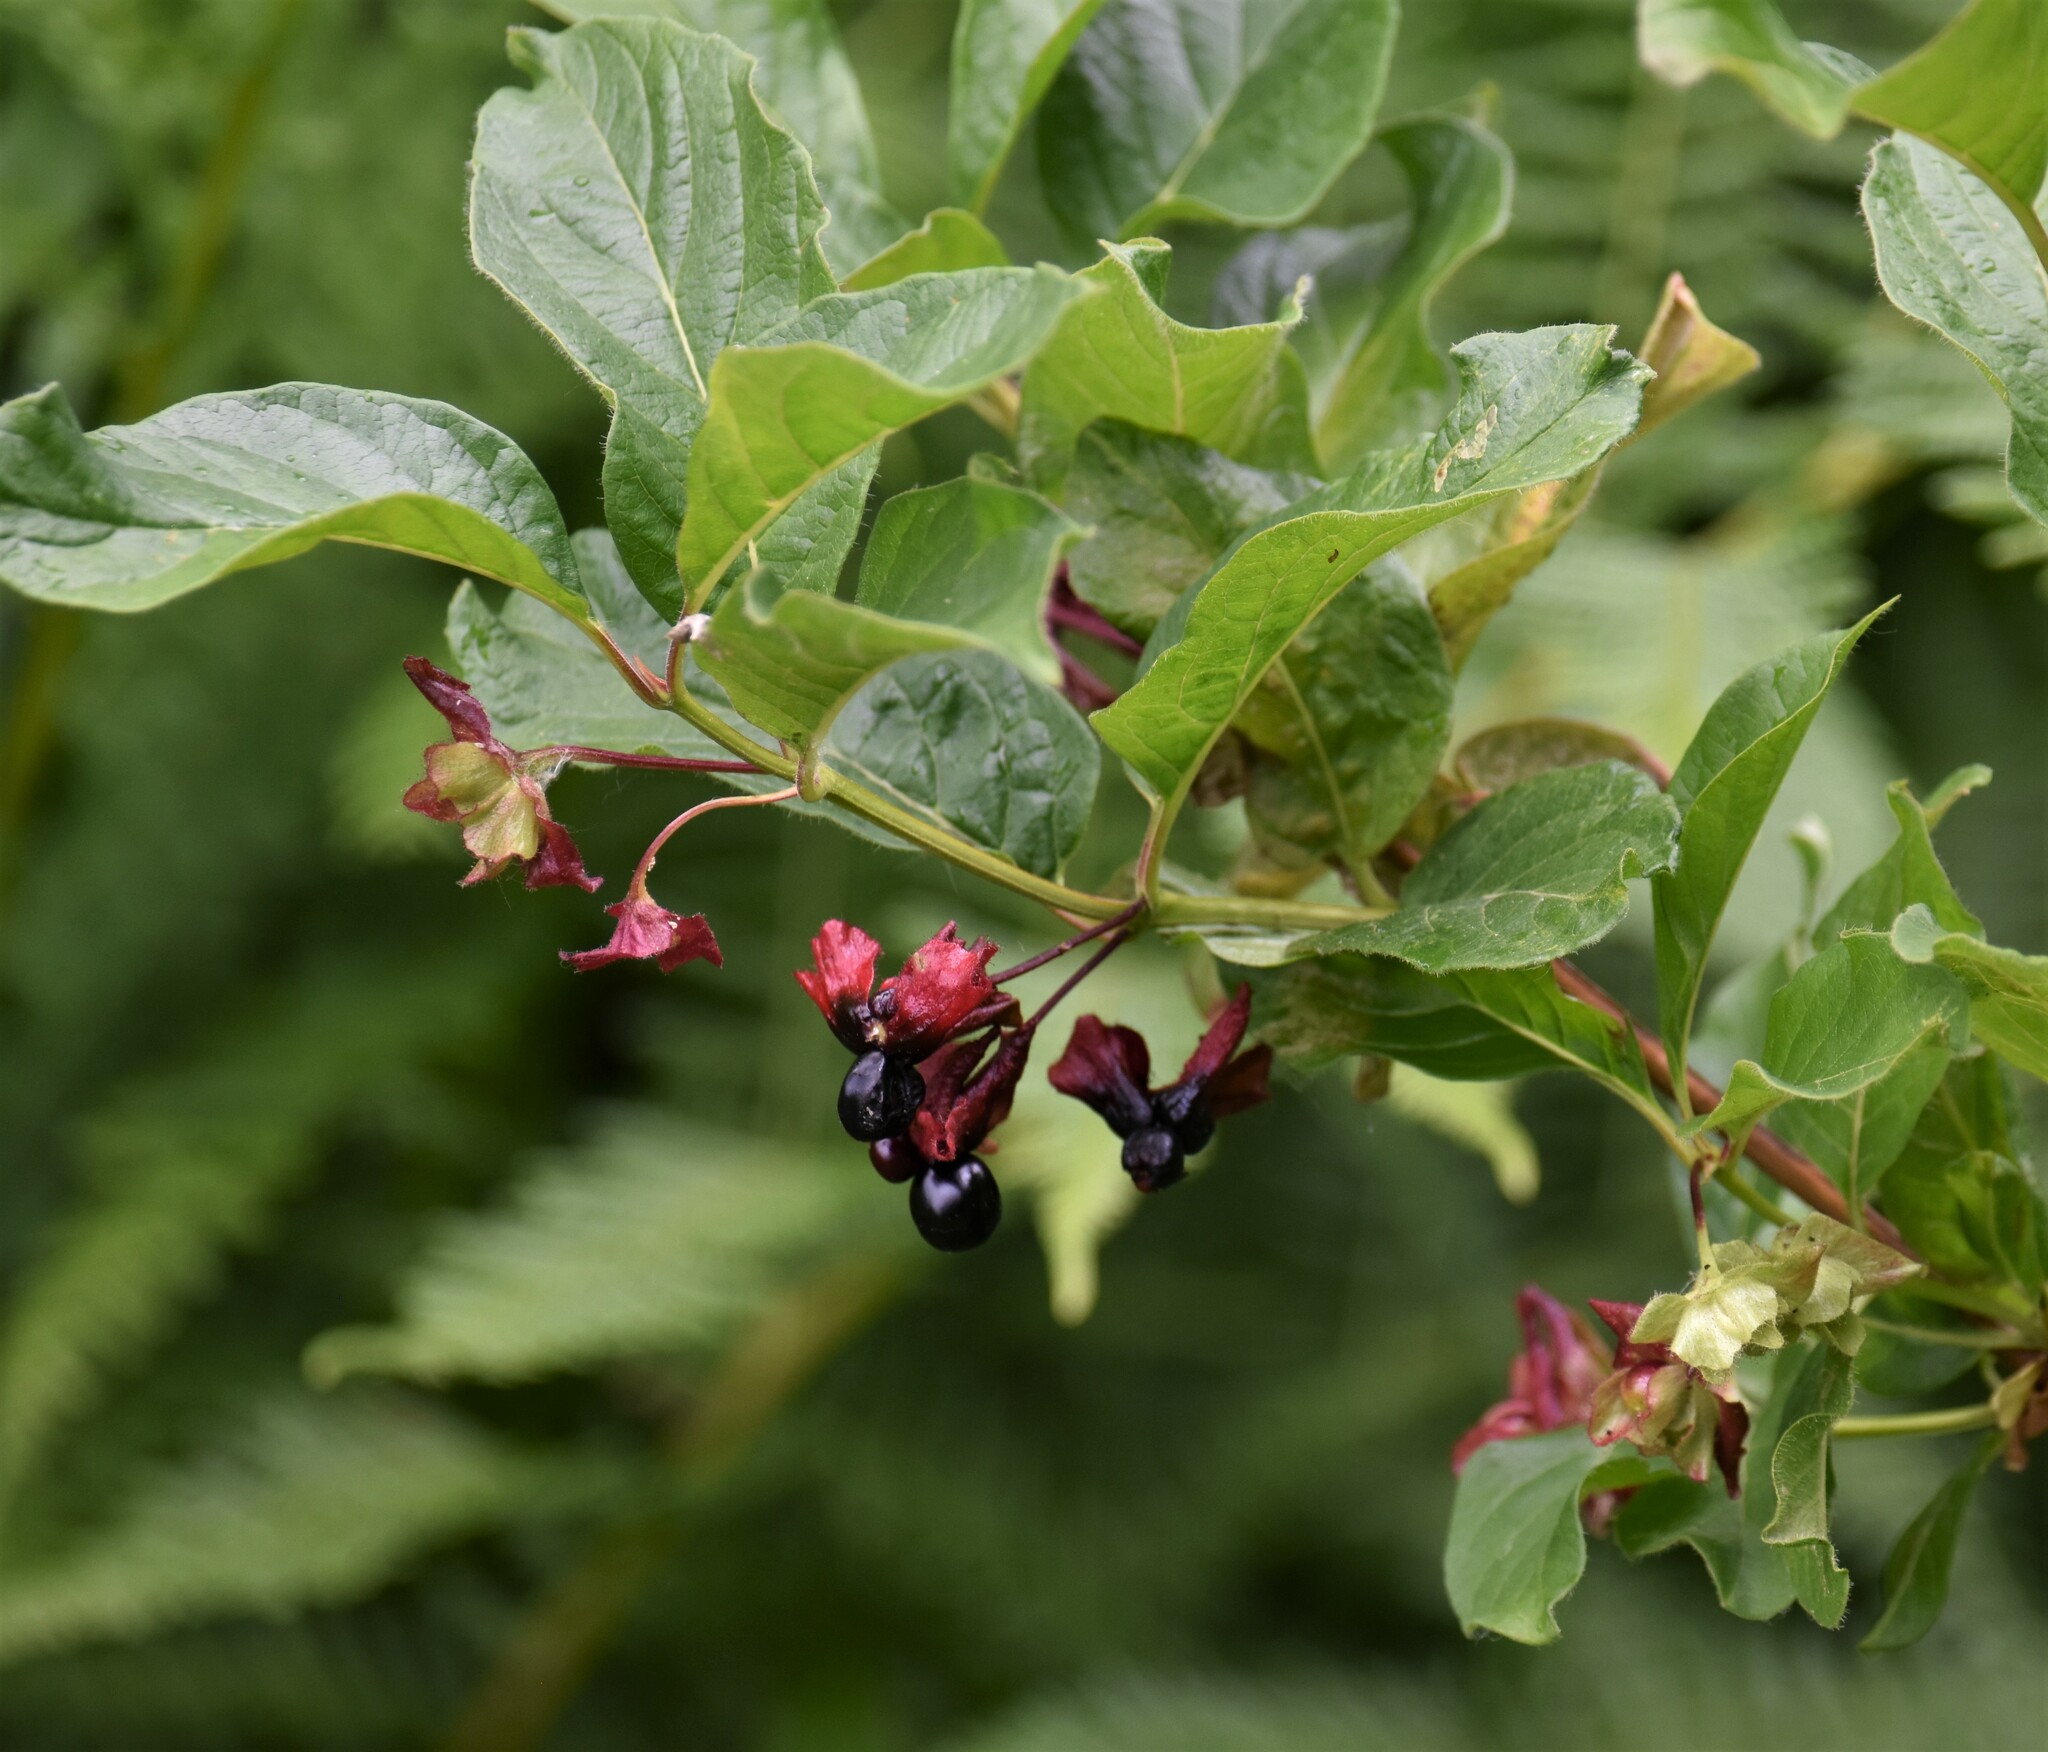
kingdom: Plantae
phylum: Tracheophyta
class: Magnoliopsida
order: Dipsacales
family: Caprifoliaceae
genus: Lonicera
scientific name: Lonicera involucrata
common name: Californian honeysuckle
